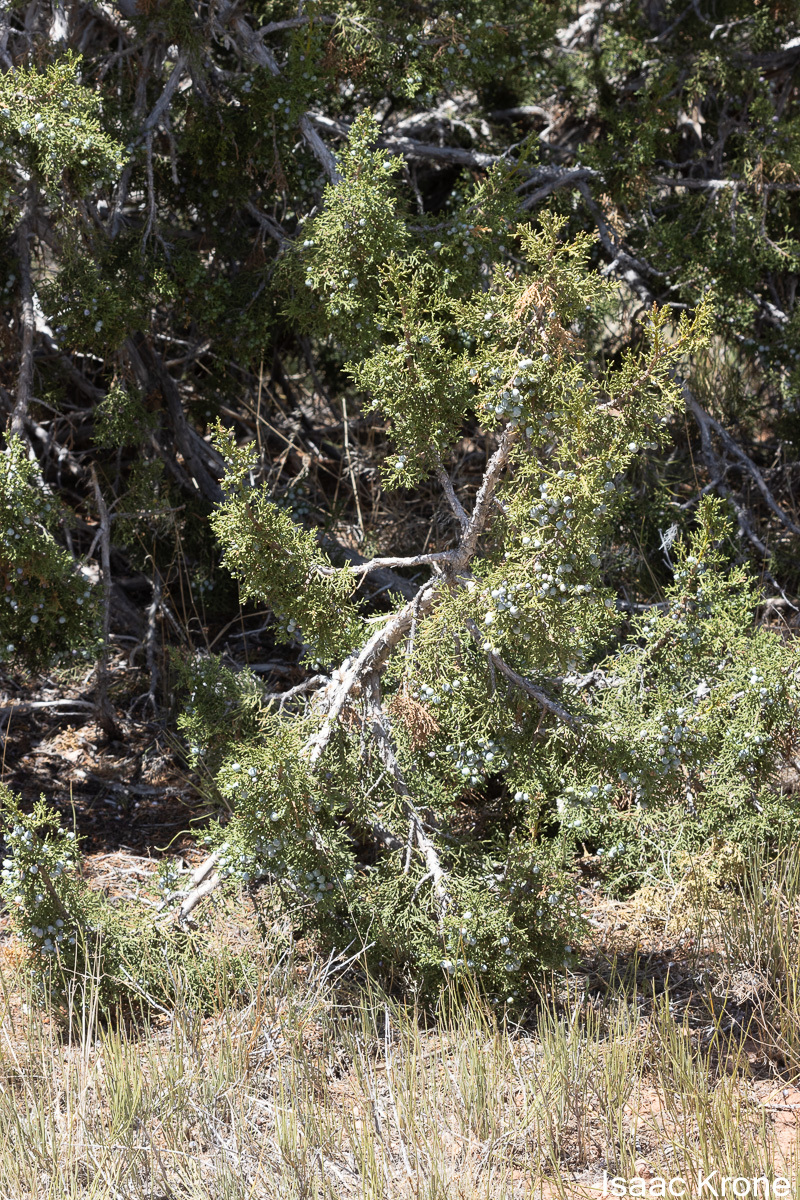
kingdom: Plantae
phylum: Tracheophyta
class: Pinopsida
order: Pinales
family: Cupressaceae
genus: Juniperus
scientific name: Juniperus osteosperma
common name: Utah juniper
